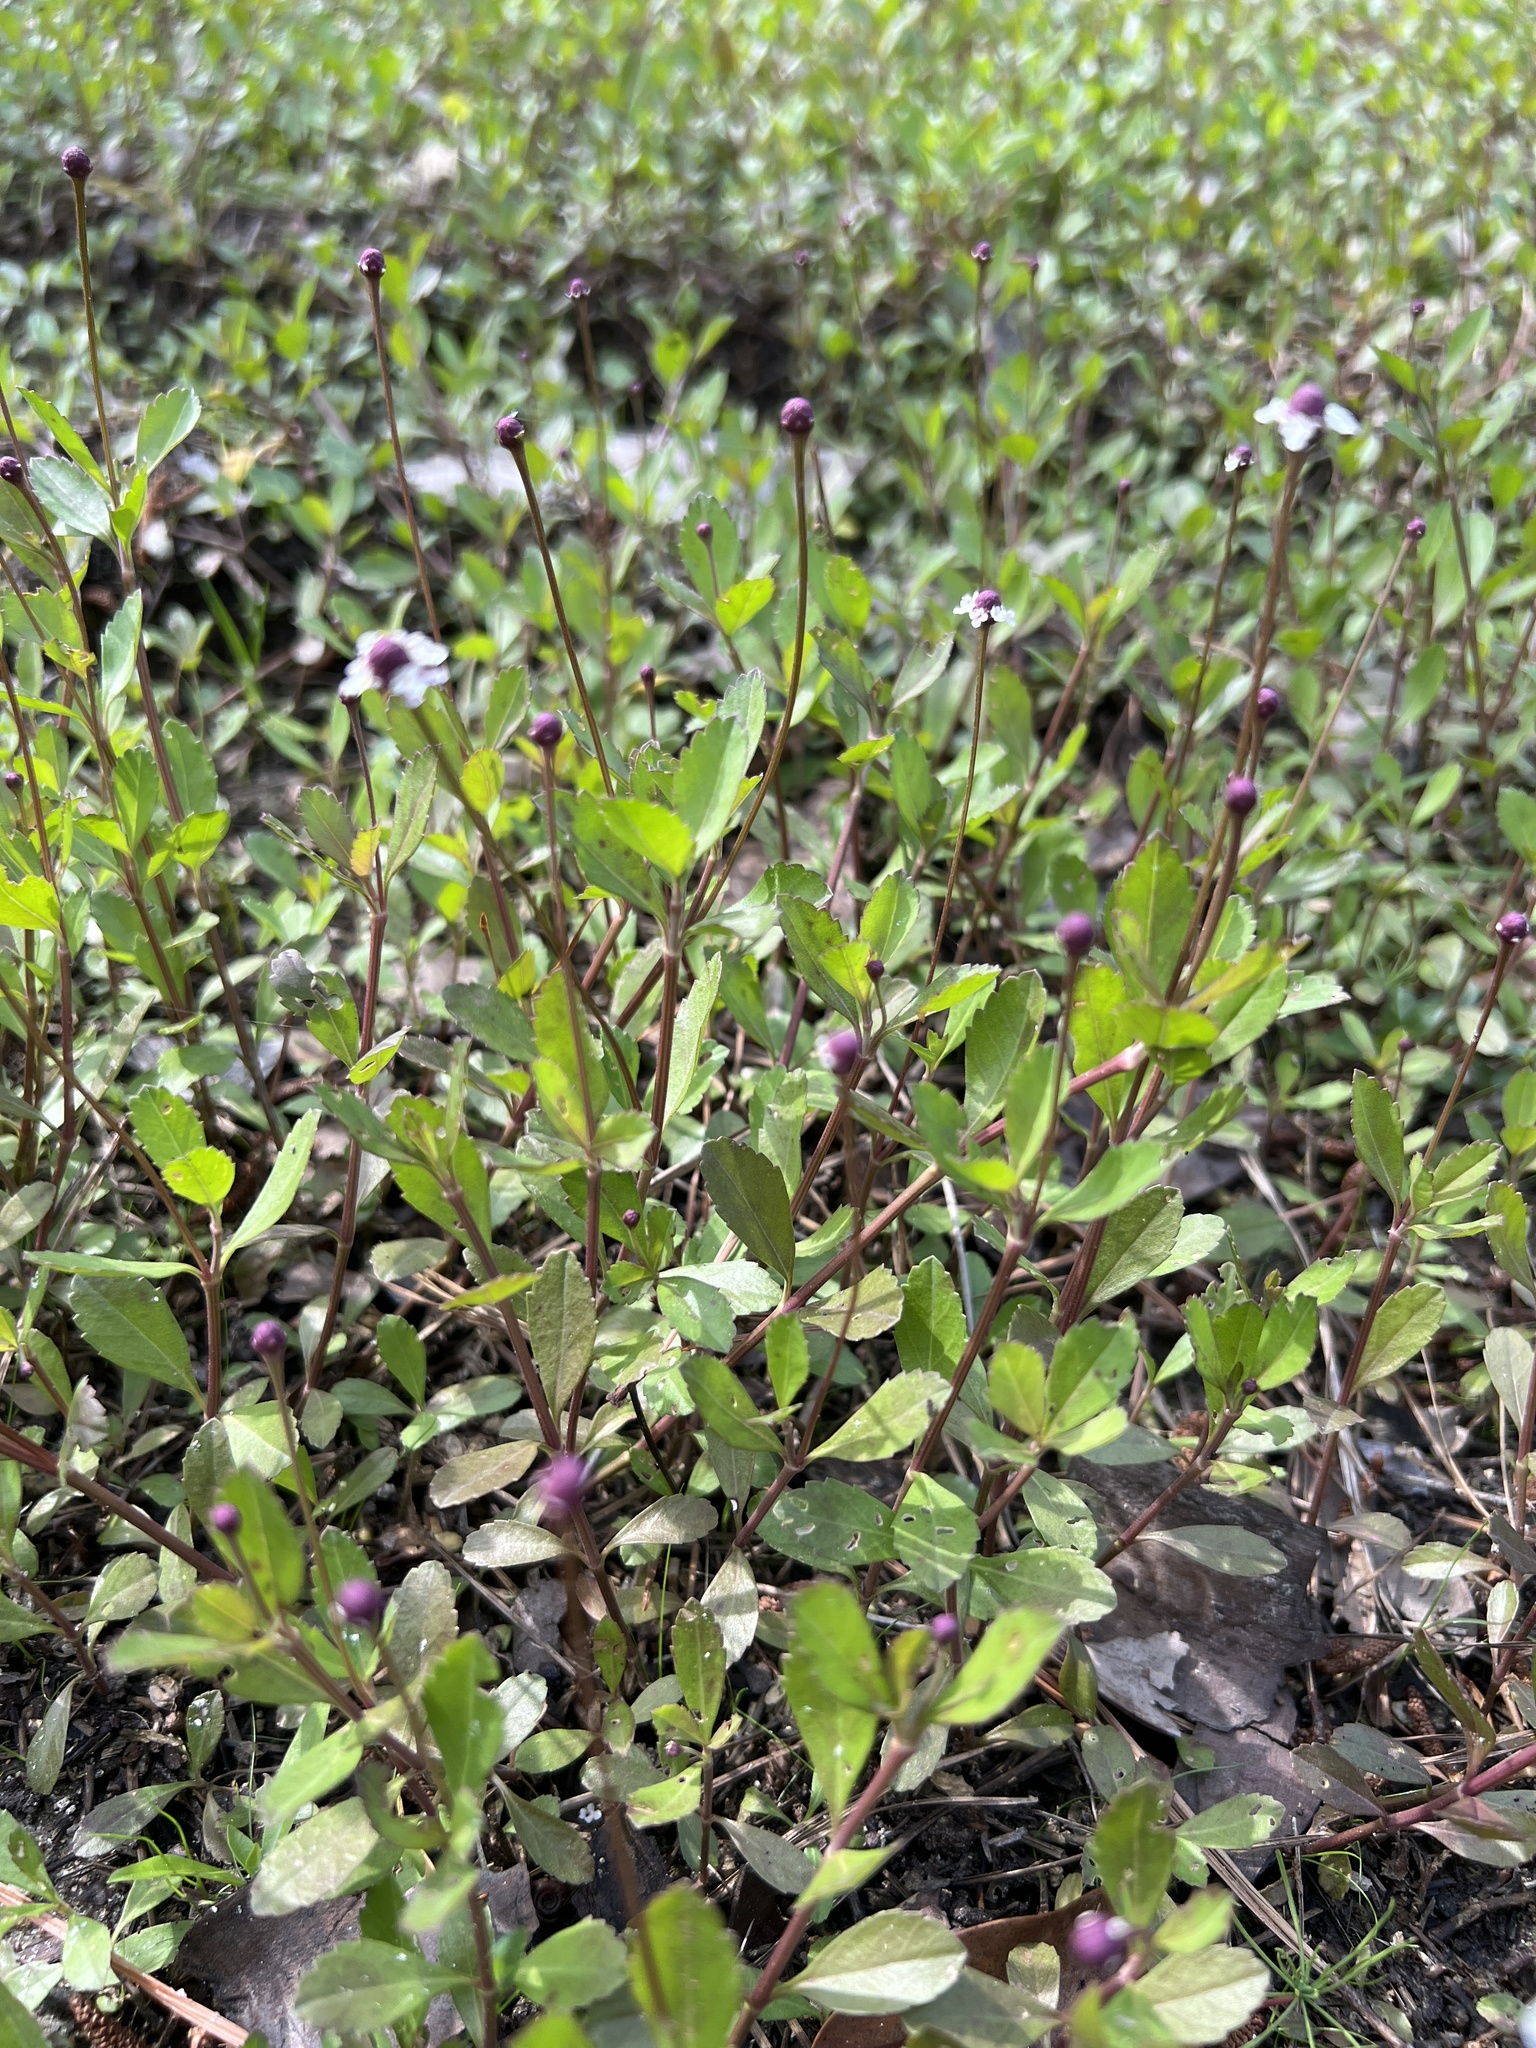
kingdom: Plantae
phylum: Tracheophyta
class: Magnoliopsida
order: Lamiales
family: Verbenaceae
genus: Phyla
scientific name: Phyla nodiflora
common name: Frogfruit
